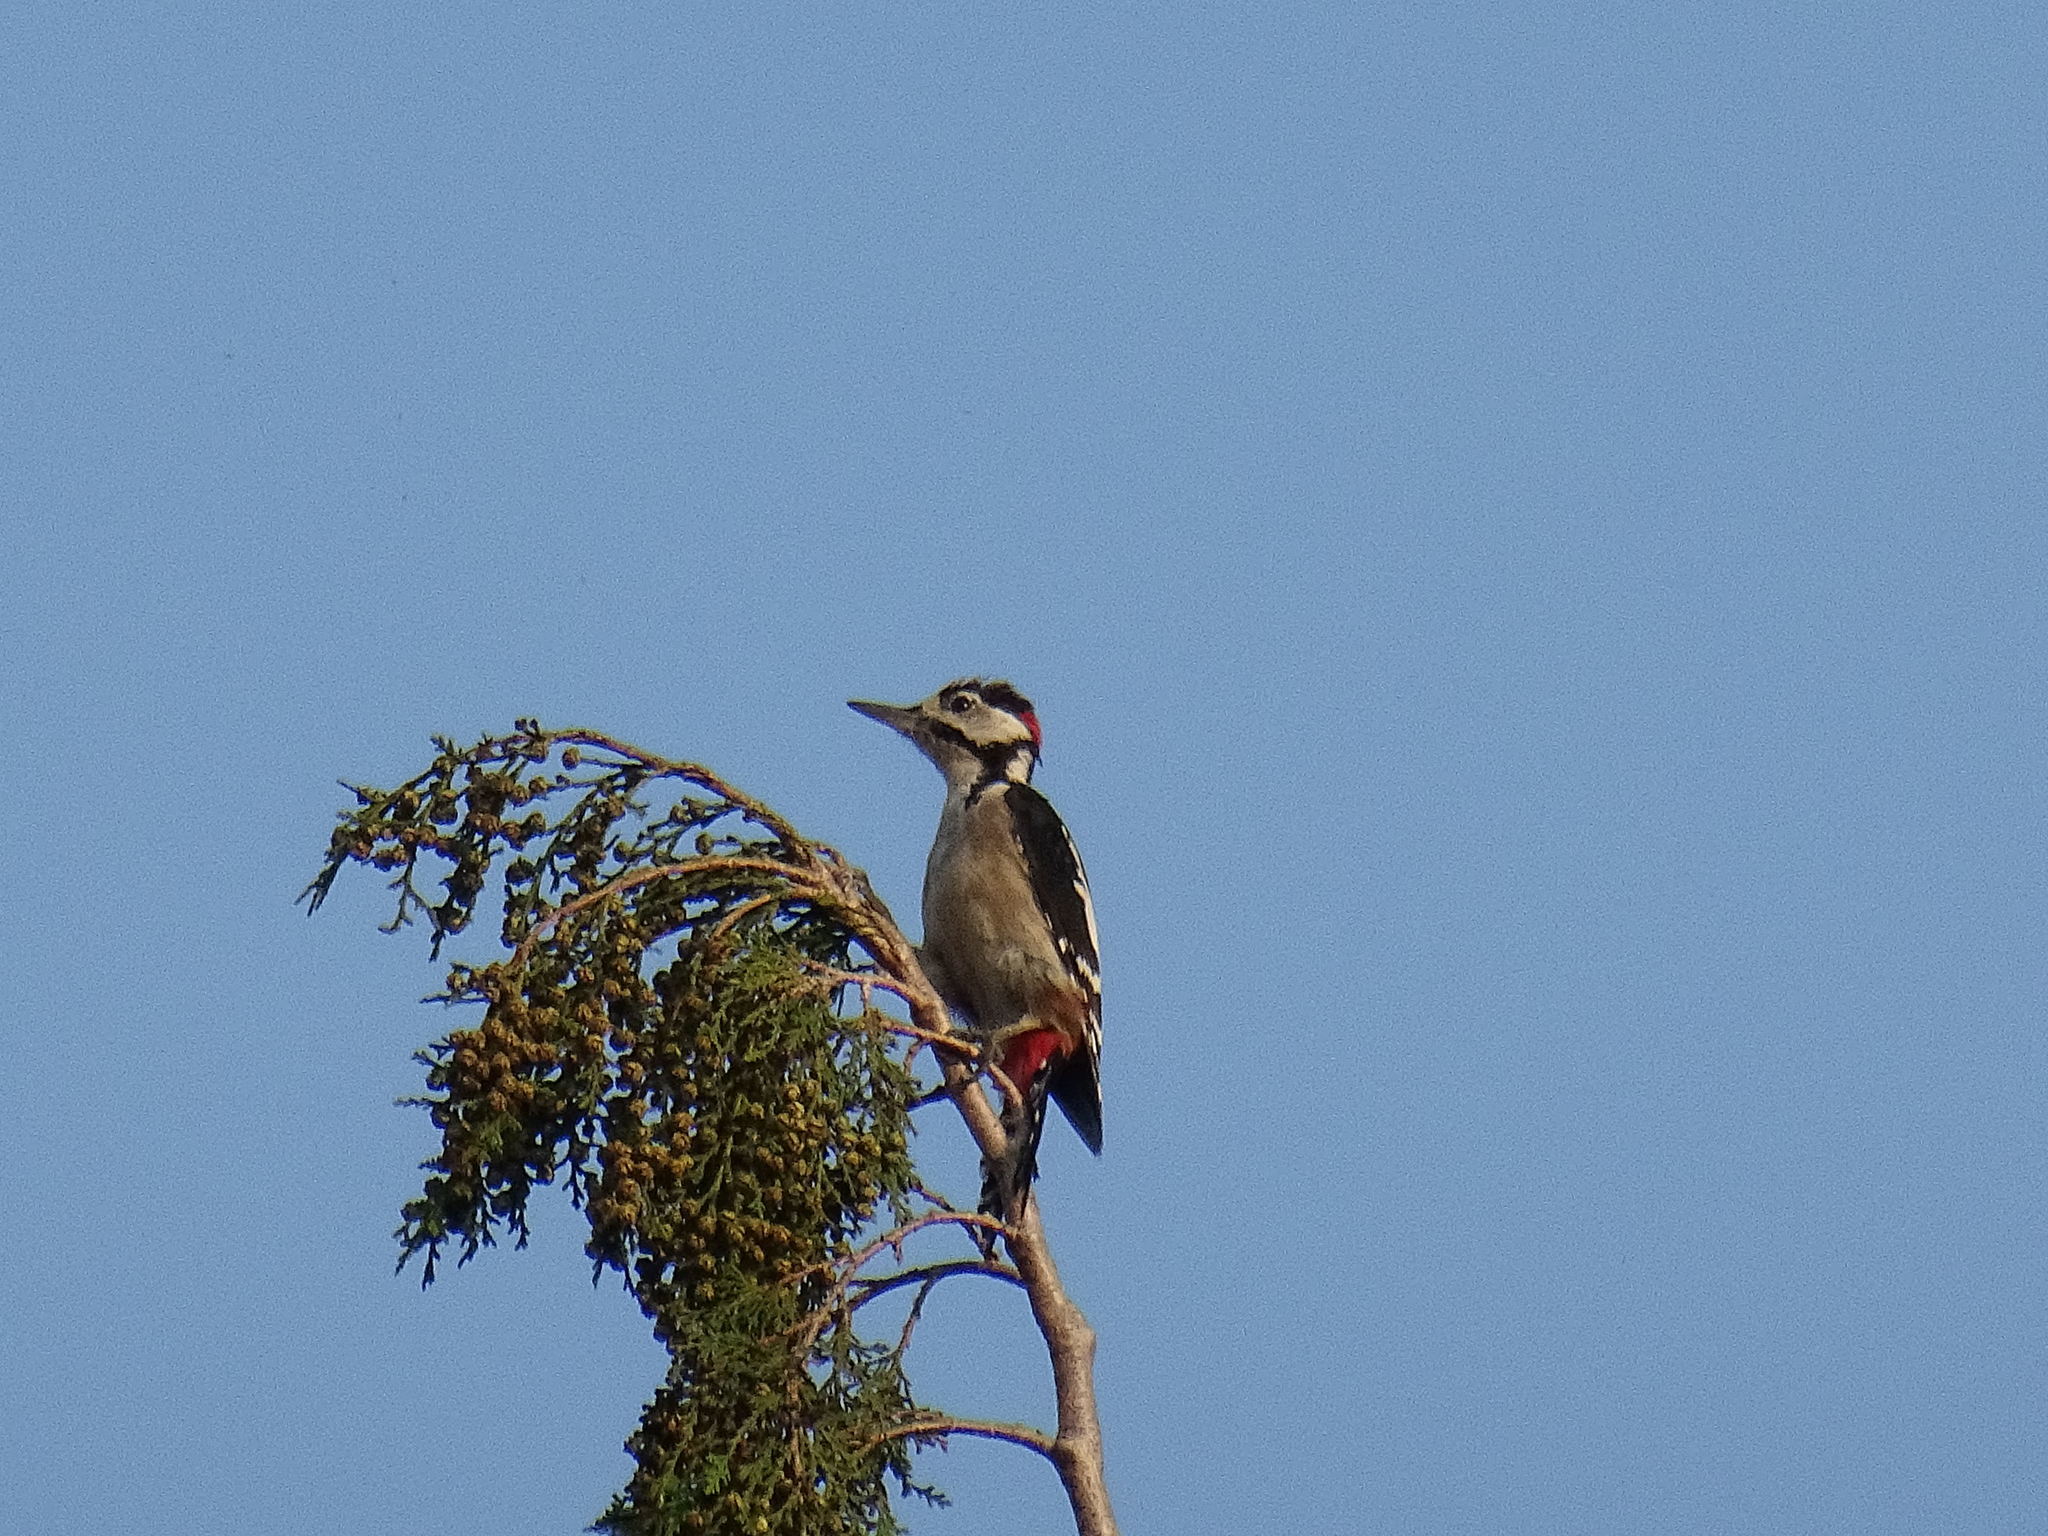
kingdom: Animalia
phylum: Chordata
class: Aves
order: Piciformes
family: Picidae
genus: Dendrocopos
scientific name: Dendrocopos major
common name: Great spotted woodpecker
